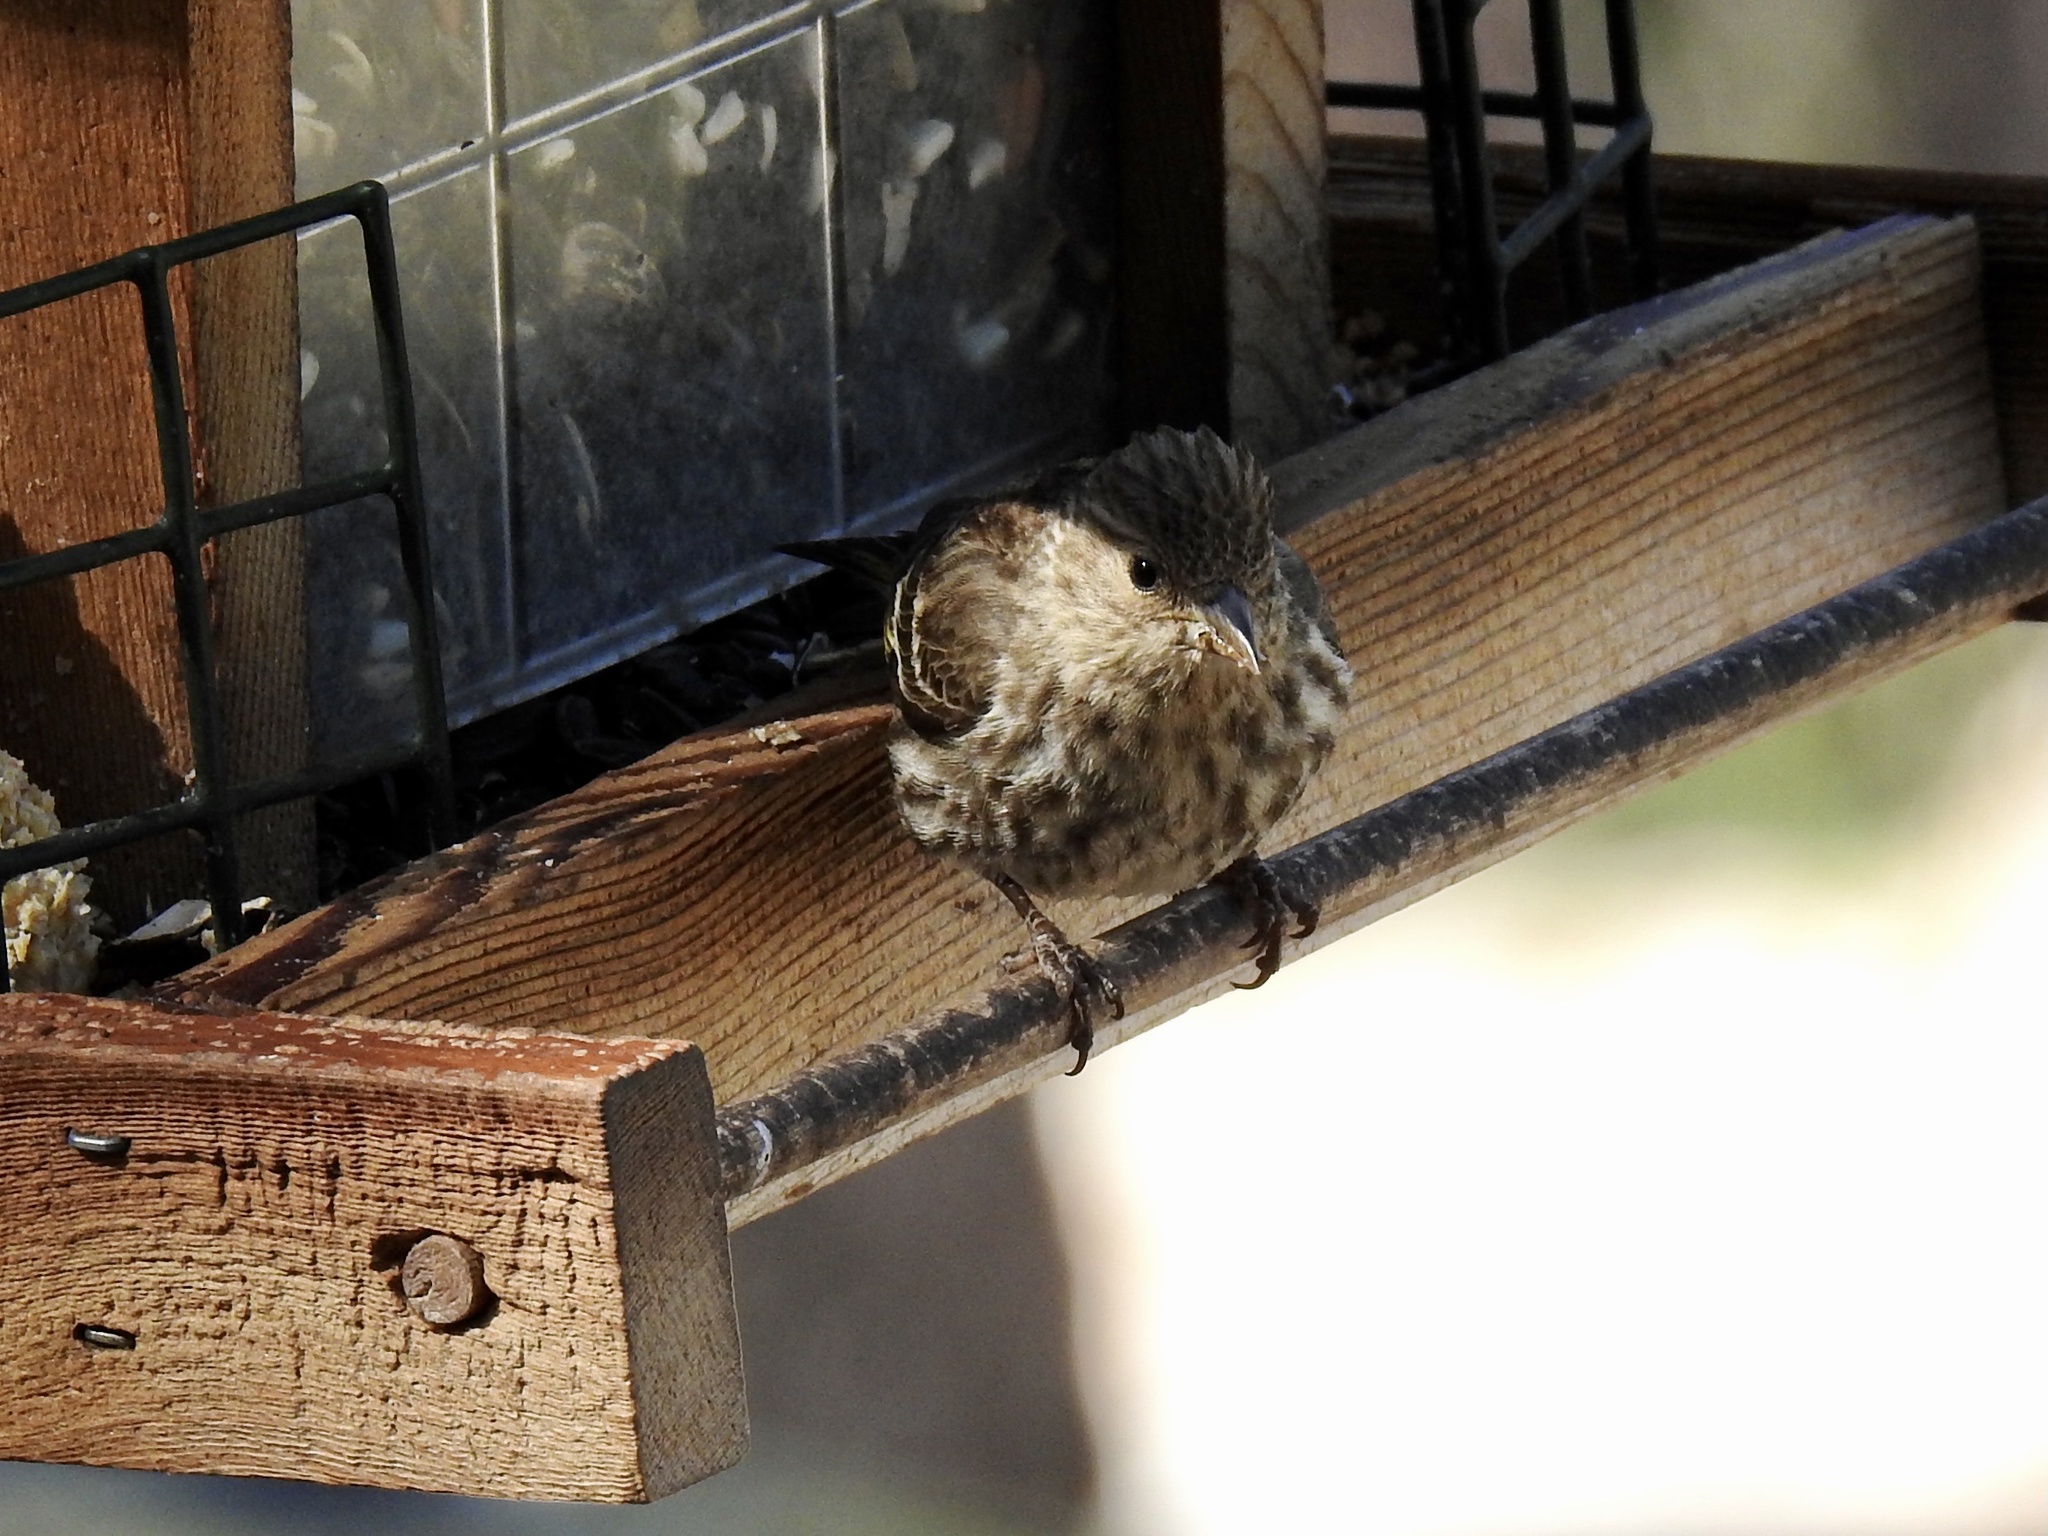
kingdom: Animalia
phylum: Chordata
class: Aves
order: Passeriformes
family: Fringillidae
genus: Spinus
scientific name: Spinus pinus
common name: Pine siskin
